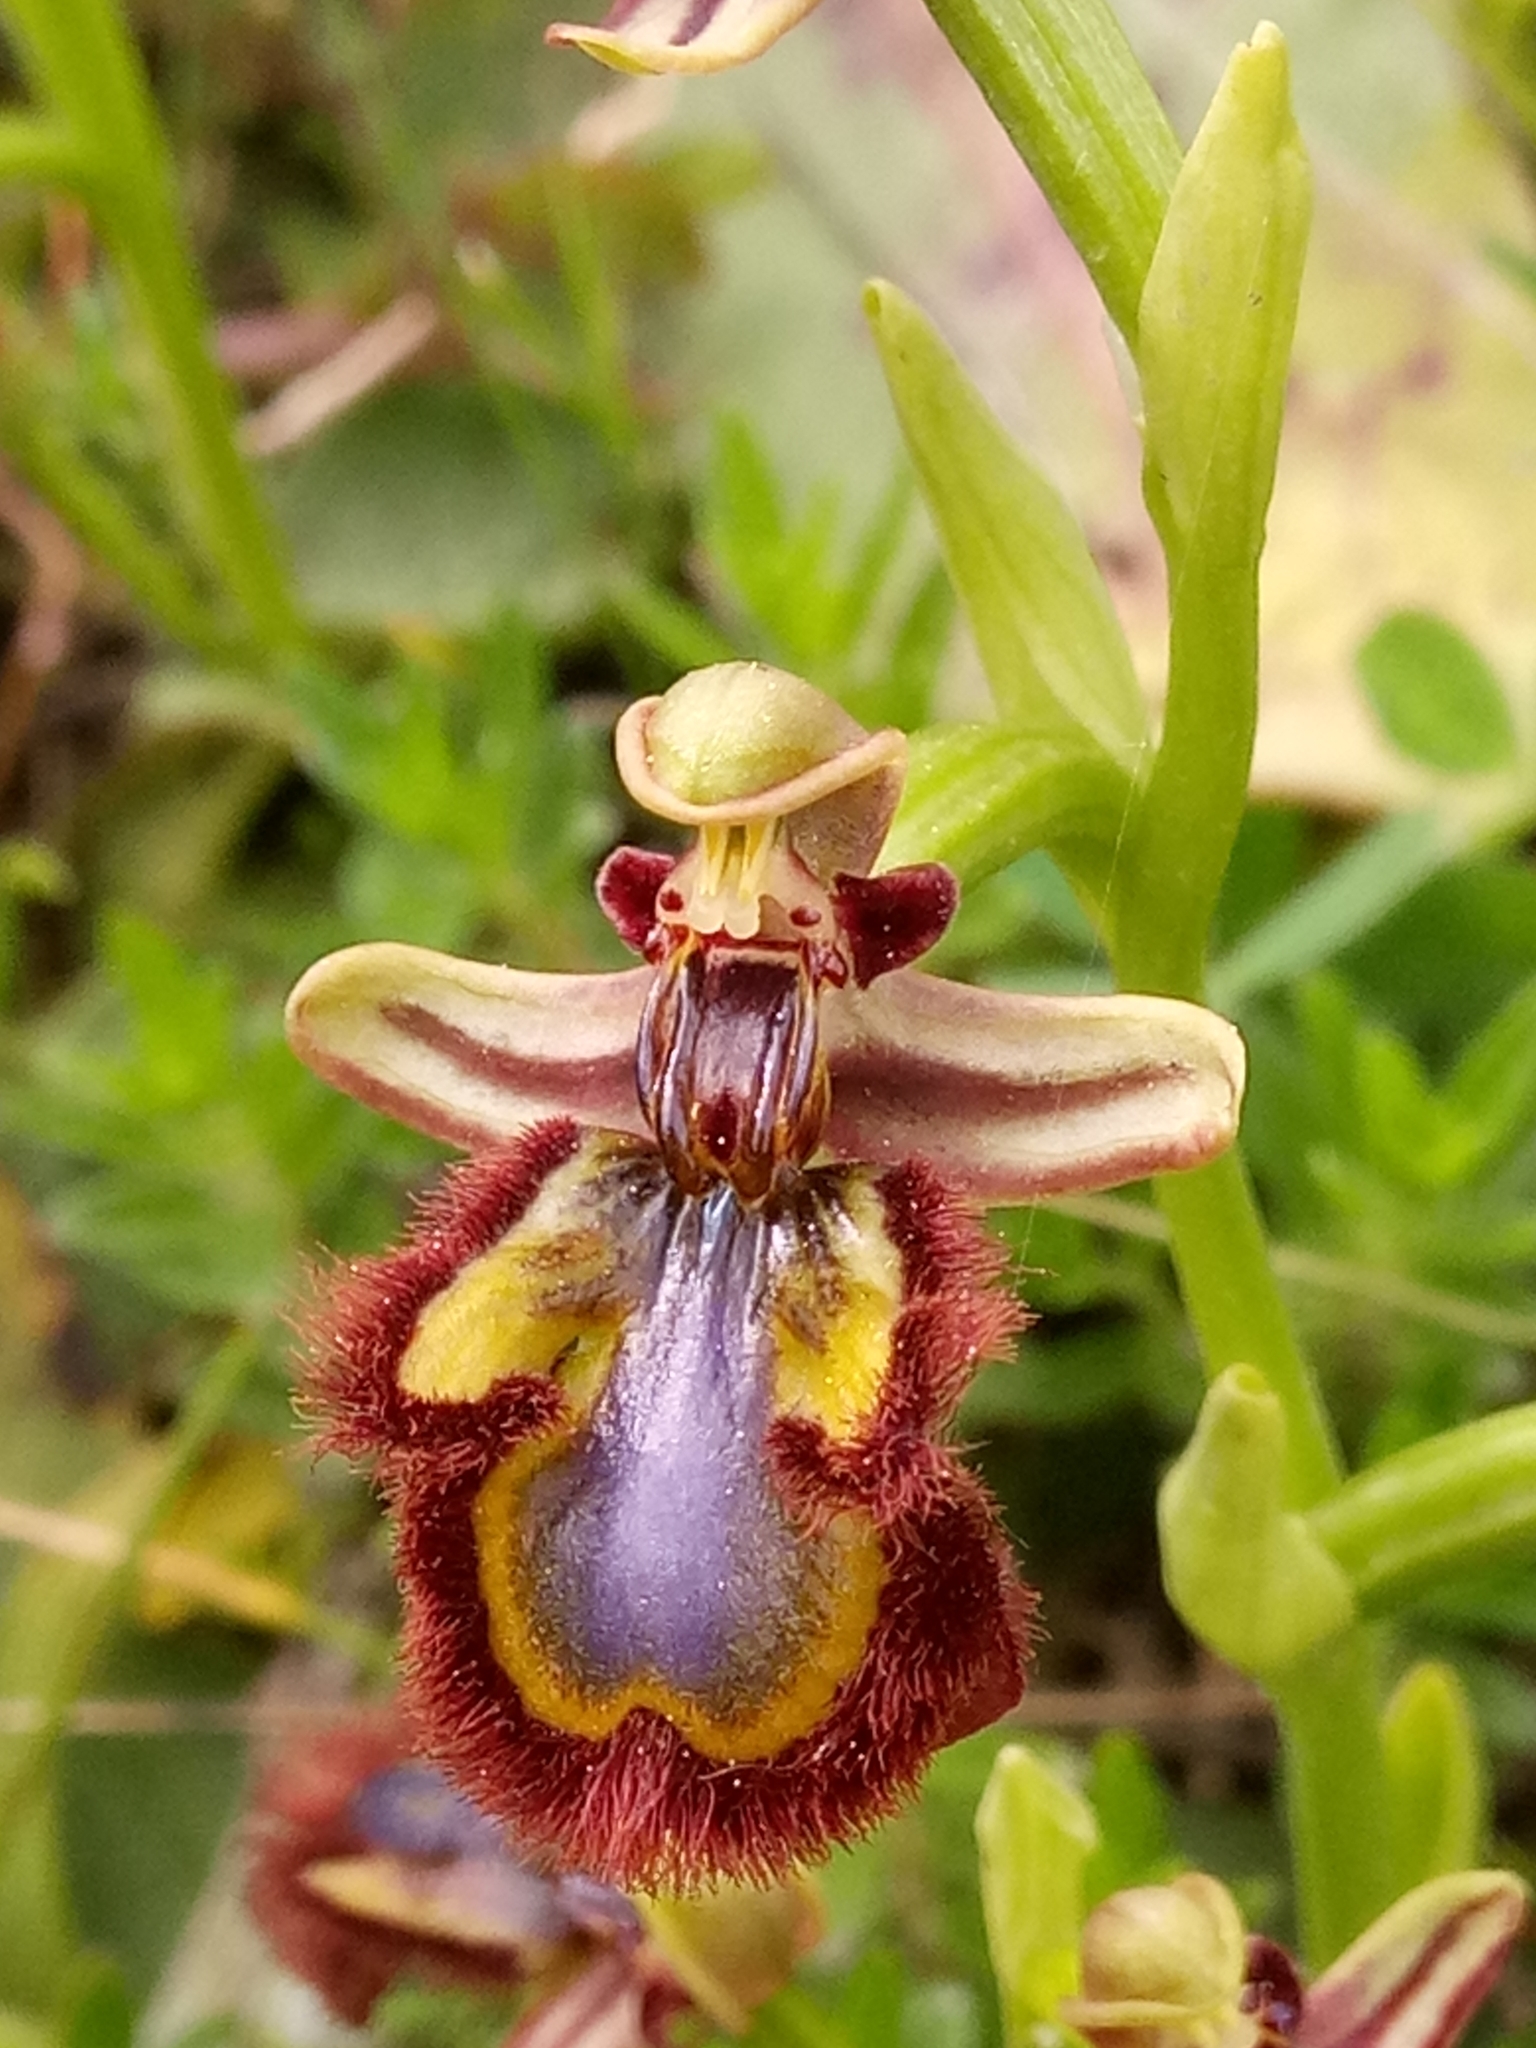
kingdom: Plantae
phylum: Tracheophyta
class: Liliopsida
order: Asparagales
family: Orchidaceae
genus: Ophrys
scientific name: Ophrys speculum
